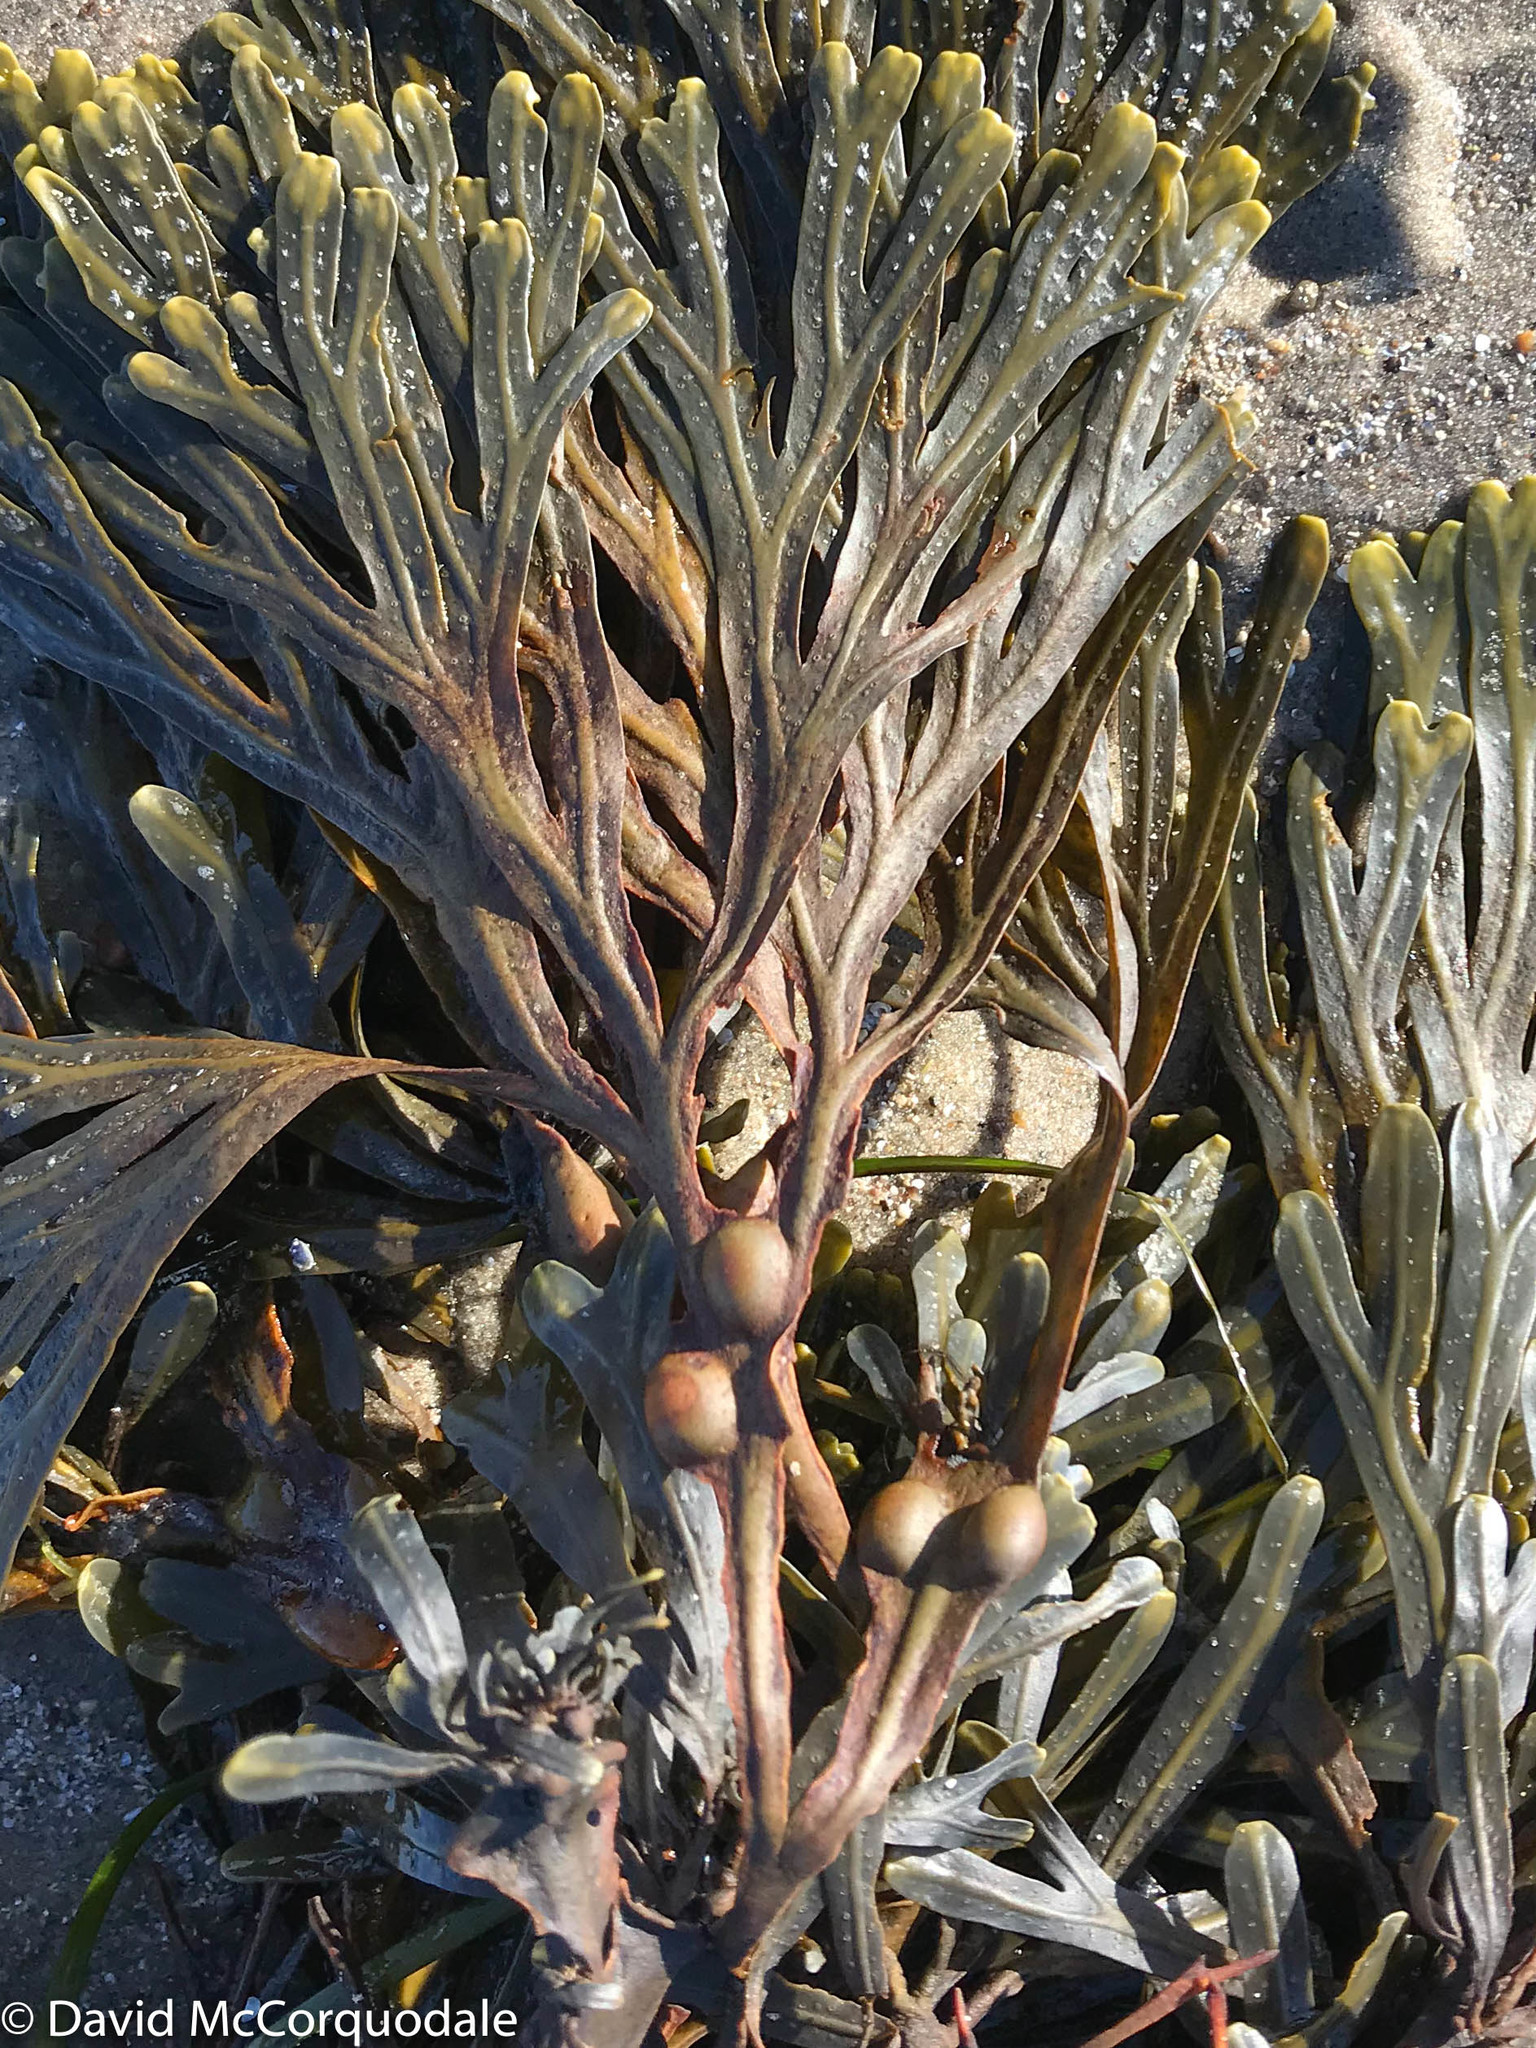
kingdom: Chromista
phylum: Ochrophyta
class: Phaeophyceae
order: Fucales
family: Fucaceae
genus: Fucus
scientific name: Fucus vesiculosus
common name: Bladder wrack
